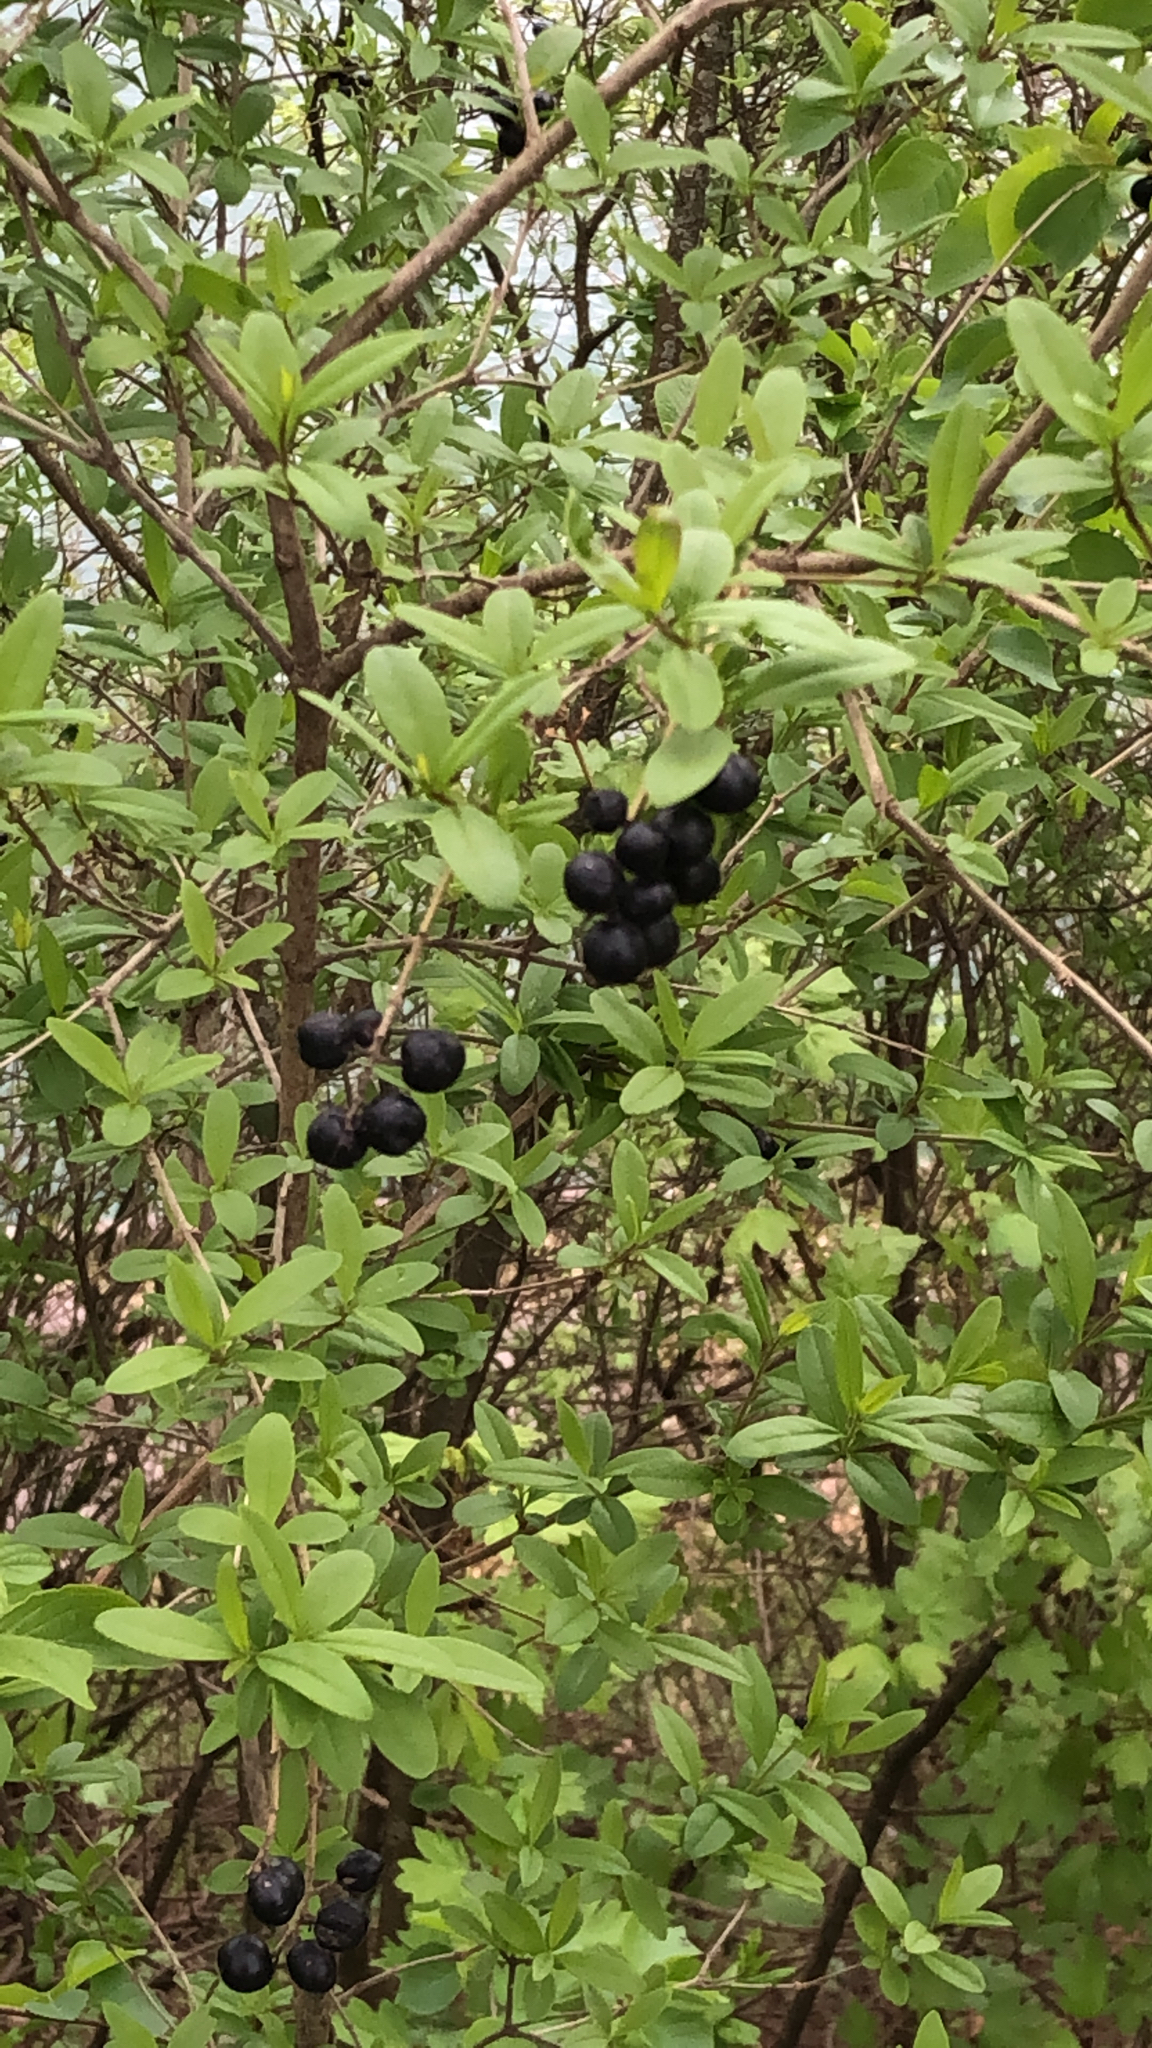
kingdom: Plantae
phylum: Tracheophyta
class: Magnoliopsida
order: Lamiales
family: Oleaceae
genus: Ligustrum
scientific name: Ligustrum vulgare
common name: Wild privet
